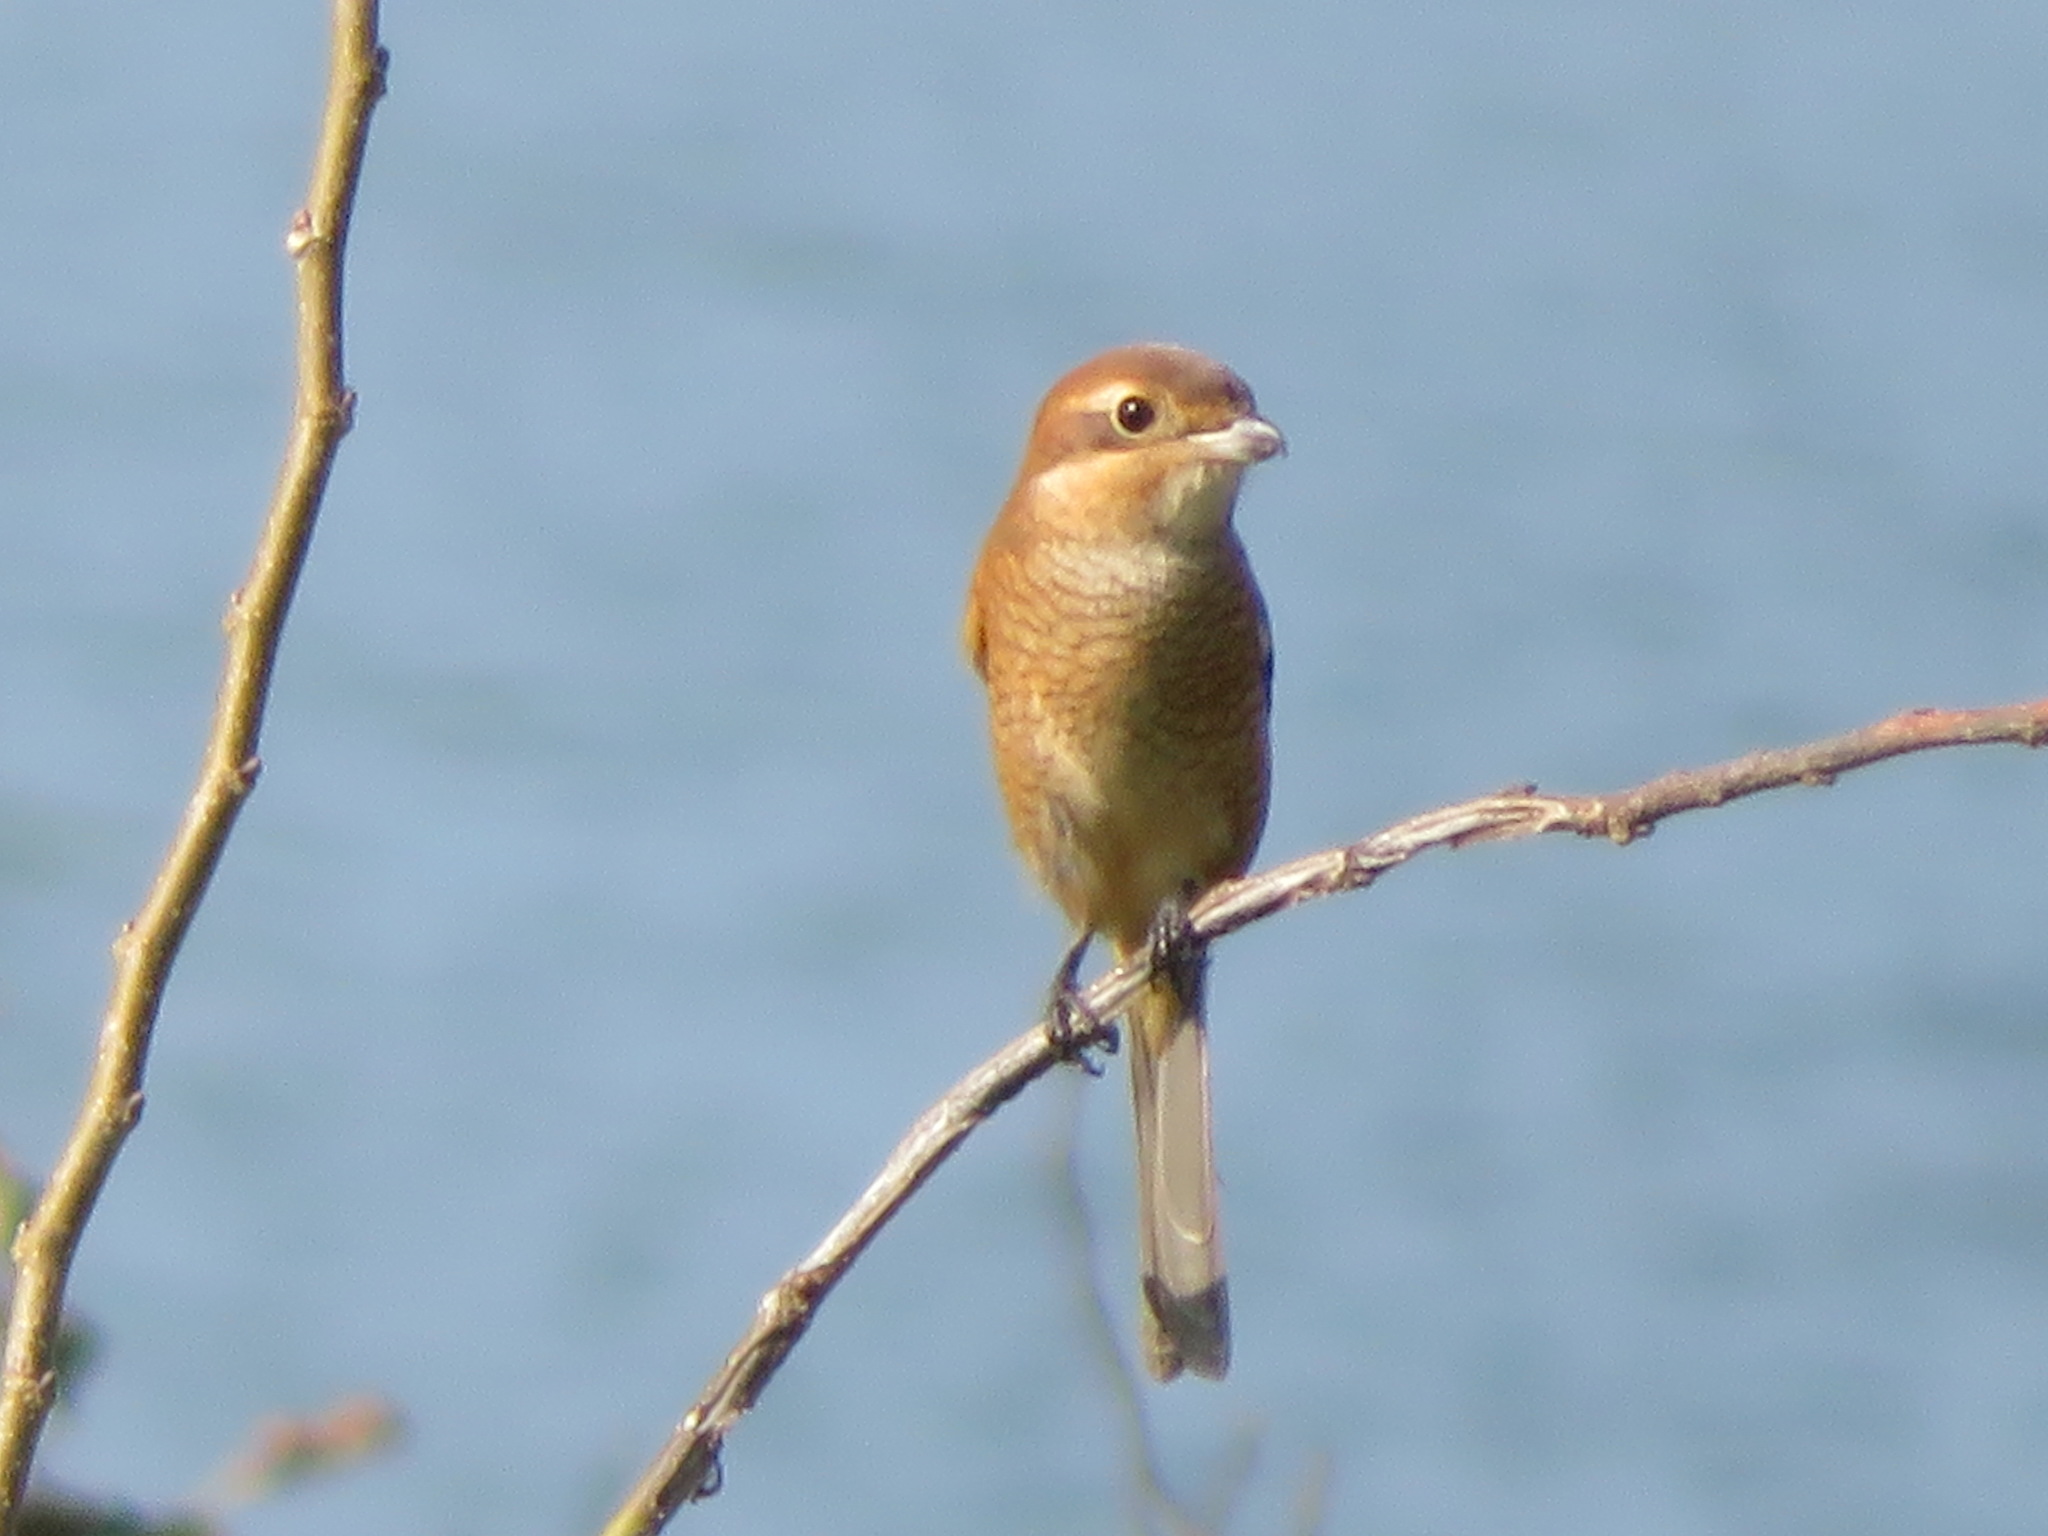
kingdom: Animalia
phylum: Chordata
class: Aves
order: Passeriformes
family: Laniidae
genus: Lanius
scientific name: Lanius bucephalus
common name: Bull-headed shrike
